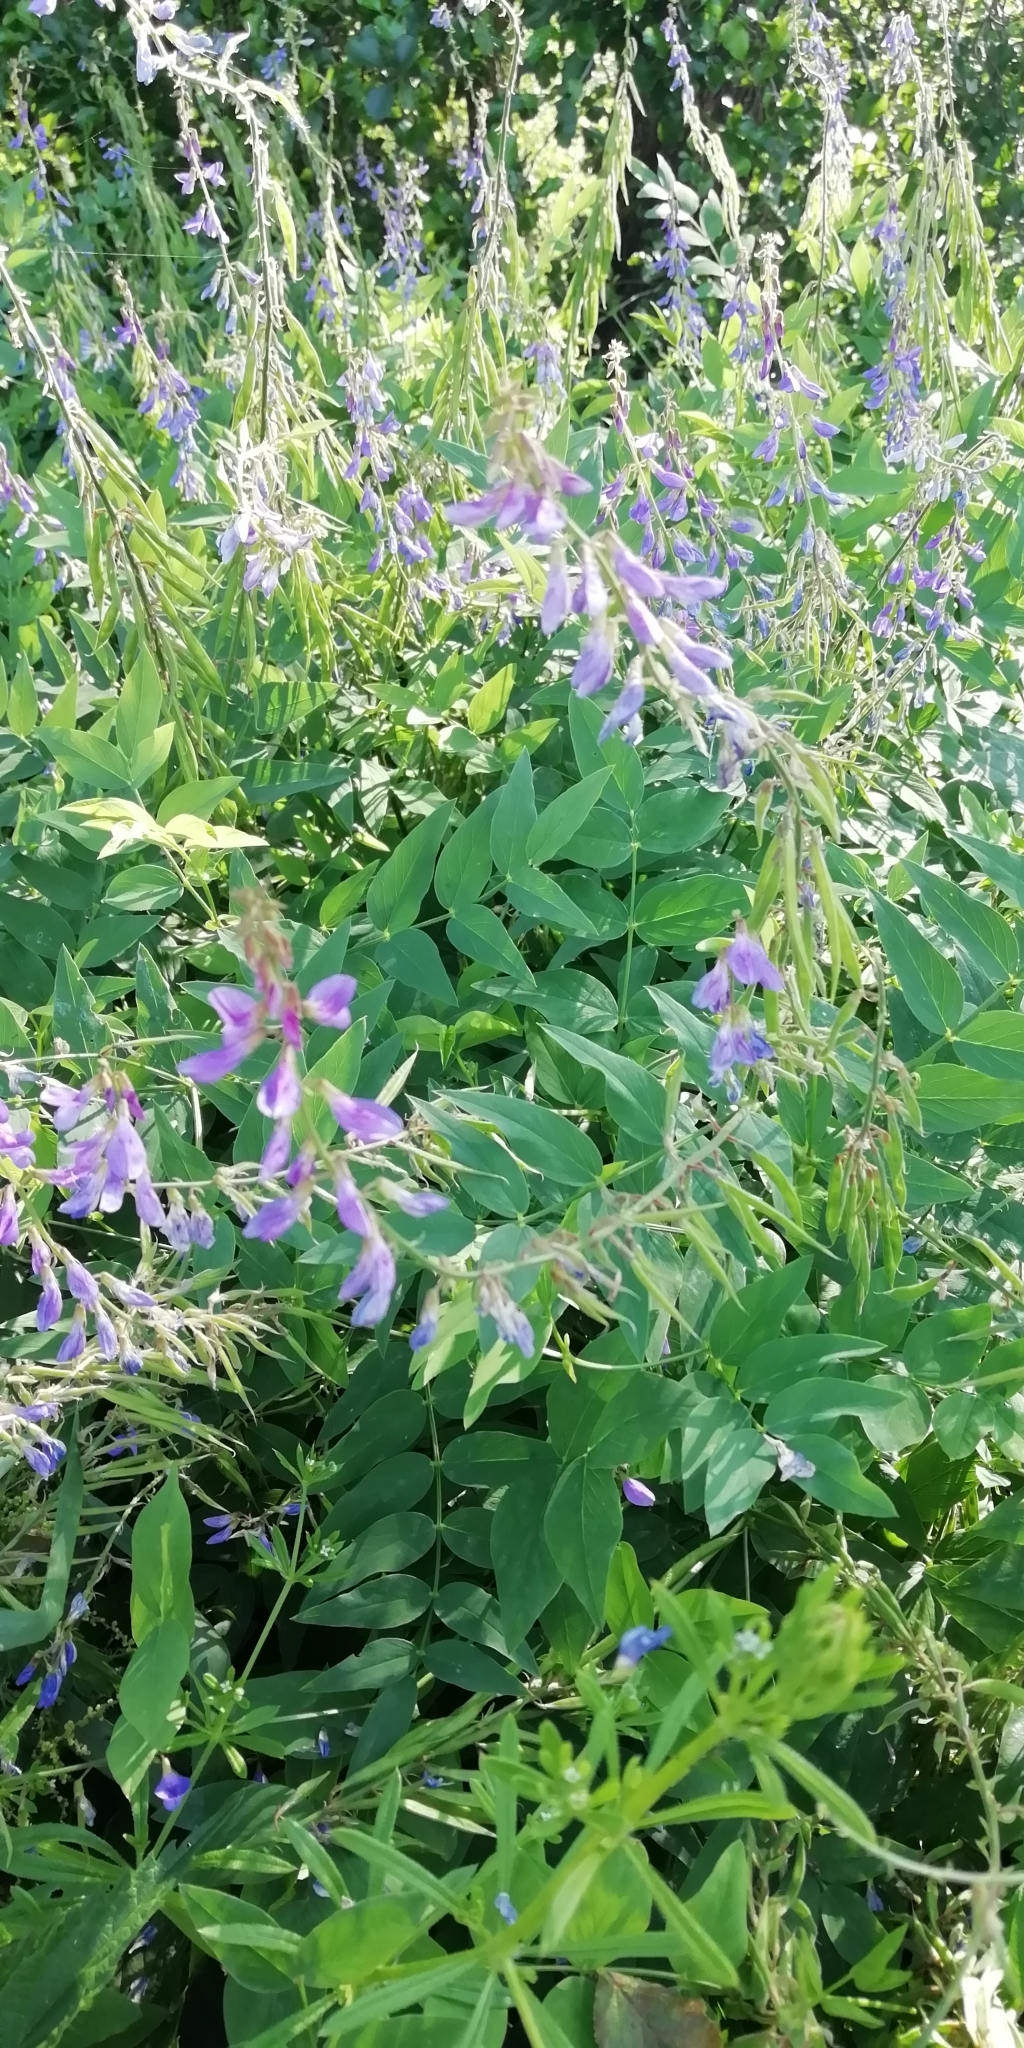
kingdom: Plantae
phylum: Tracheophyta
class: Magnoliopsida
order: Fabales
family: Fabaceae
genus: Galega
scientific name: Galega orientalis
